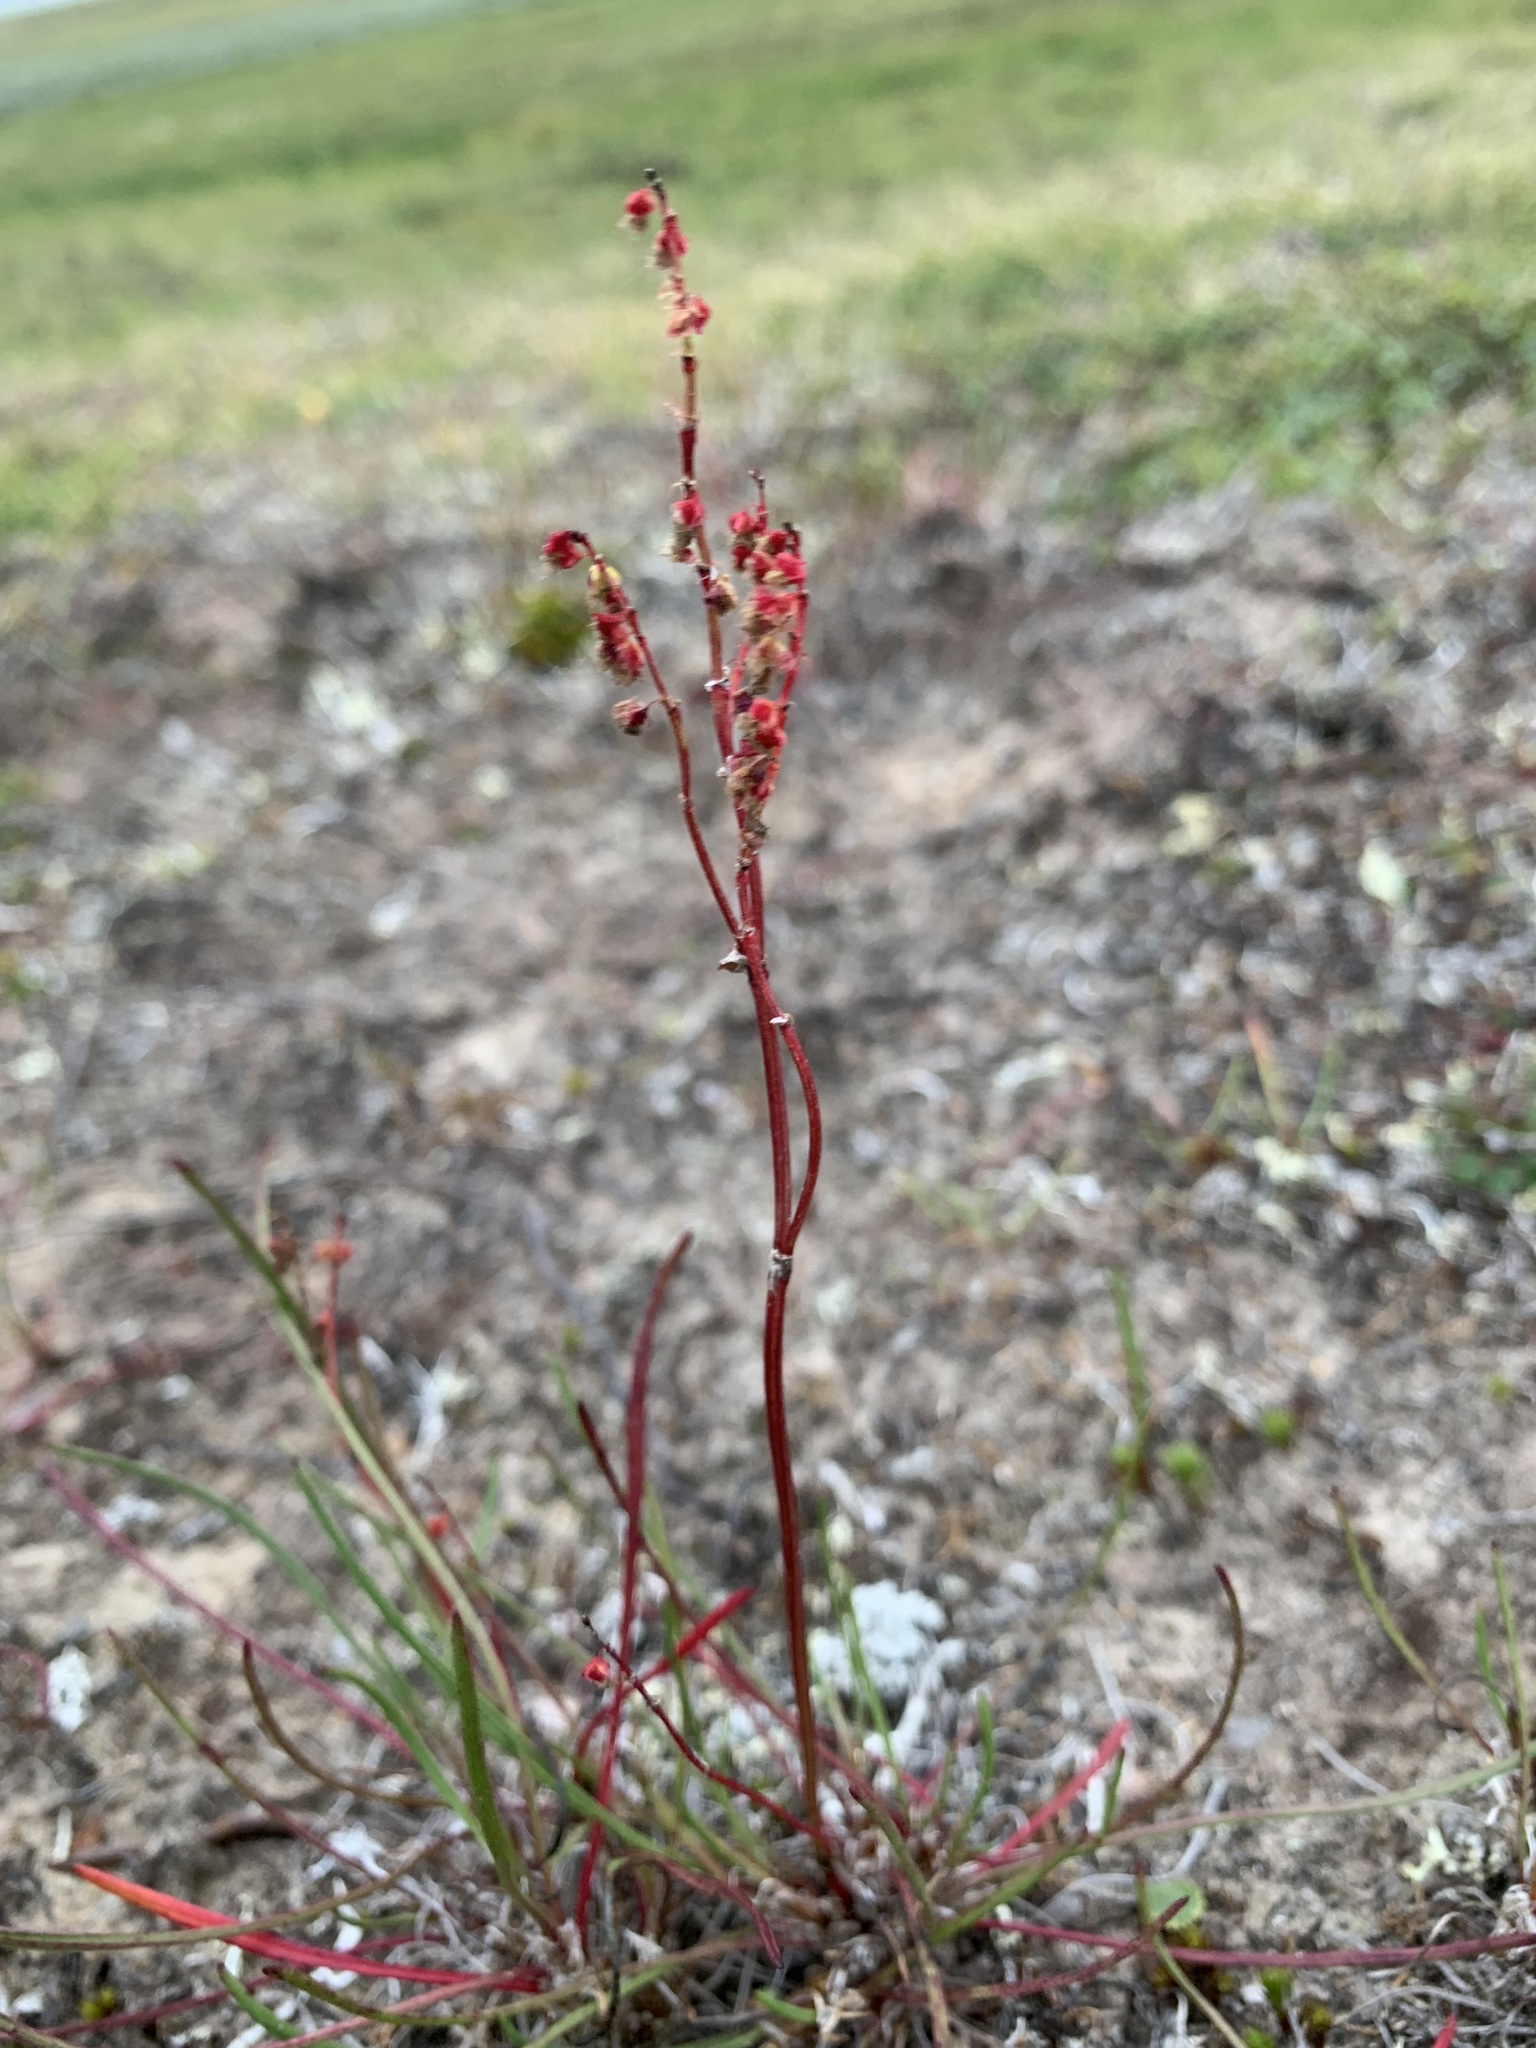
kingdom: Plantae
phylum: Tracheophyta
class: Magnoliopsida
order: Caryophyllales
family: Polygonaceae
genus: Rumex
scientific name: Rumex graminifolius
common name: Grass-leaved sorrel
